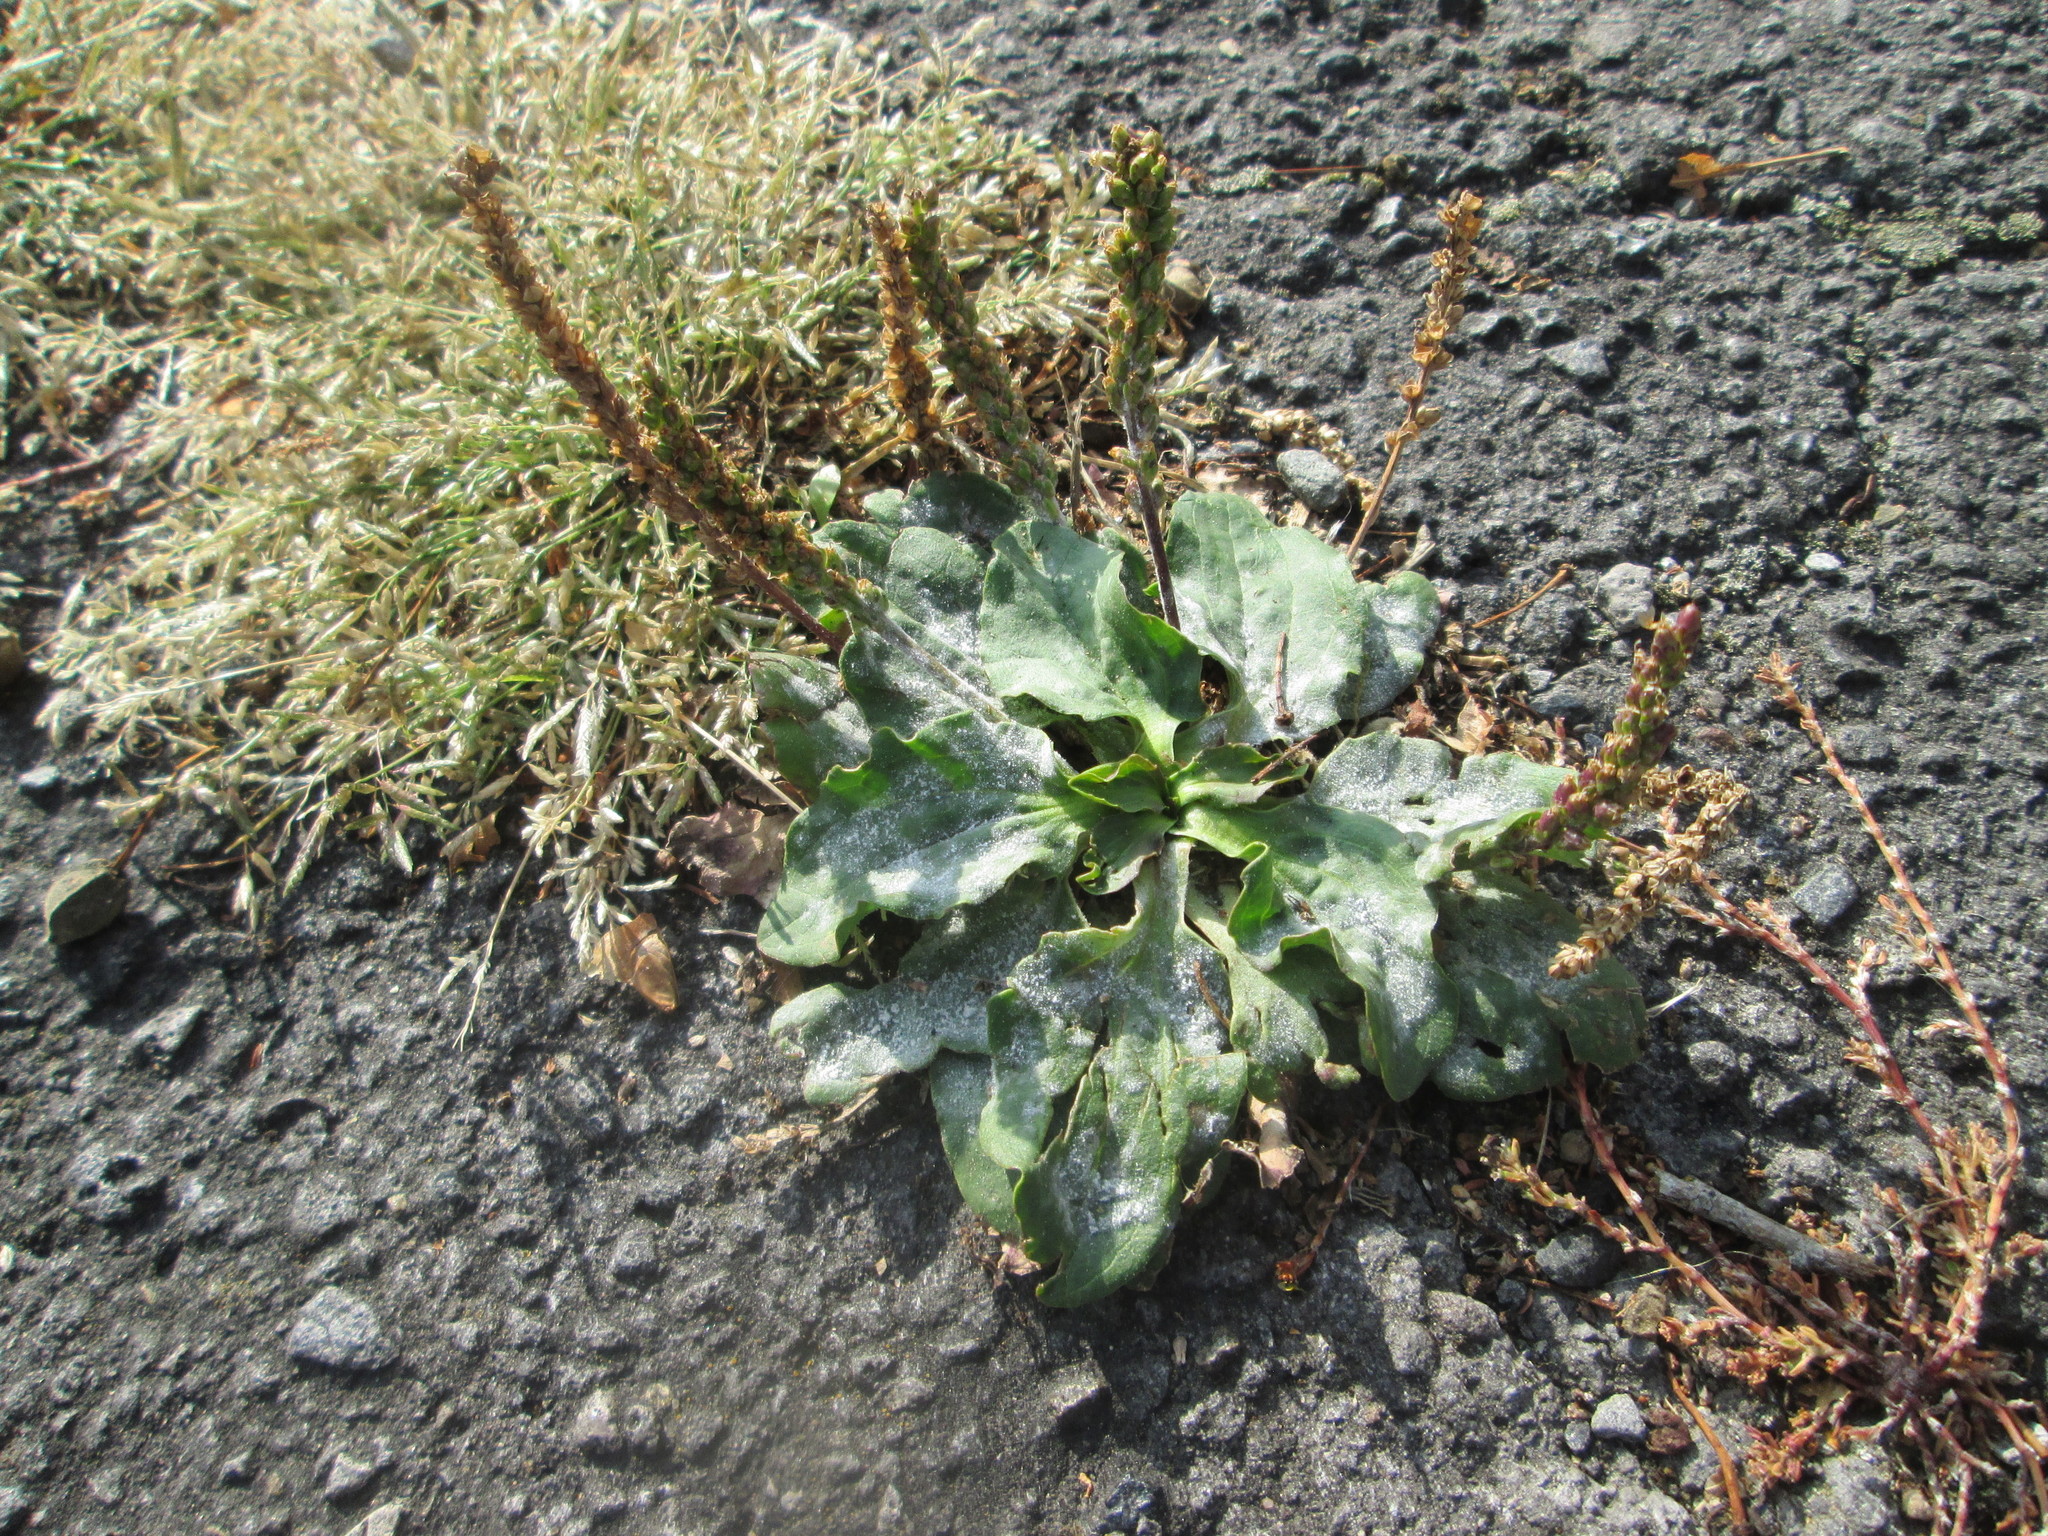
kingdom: Plantae
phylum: Tracheophyta
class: Magnoliopsida
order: Lamiales
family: Plantaginaceae
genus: Plantago
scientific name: Plantago major
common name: Common plantain
